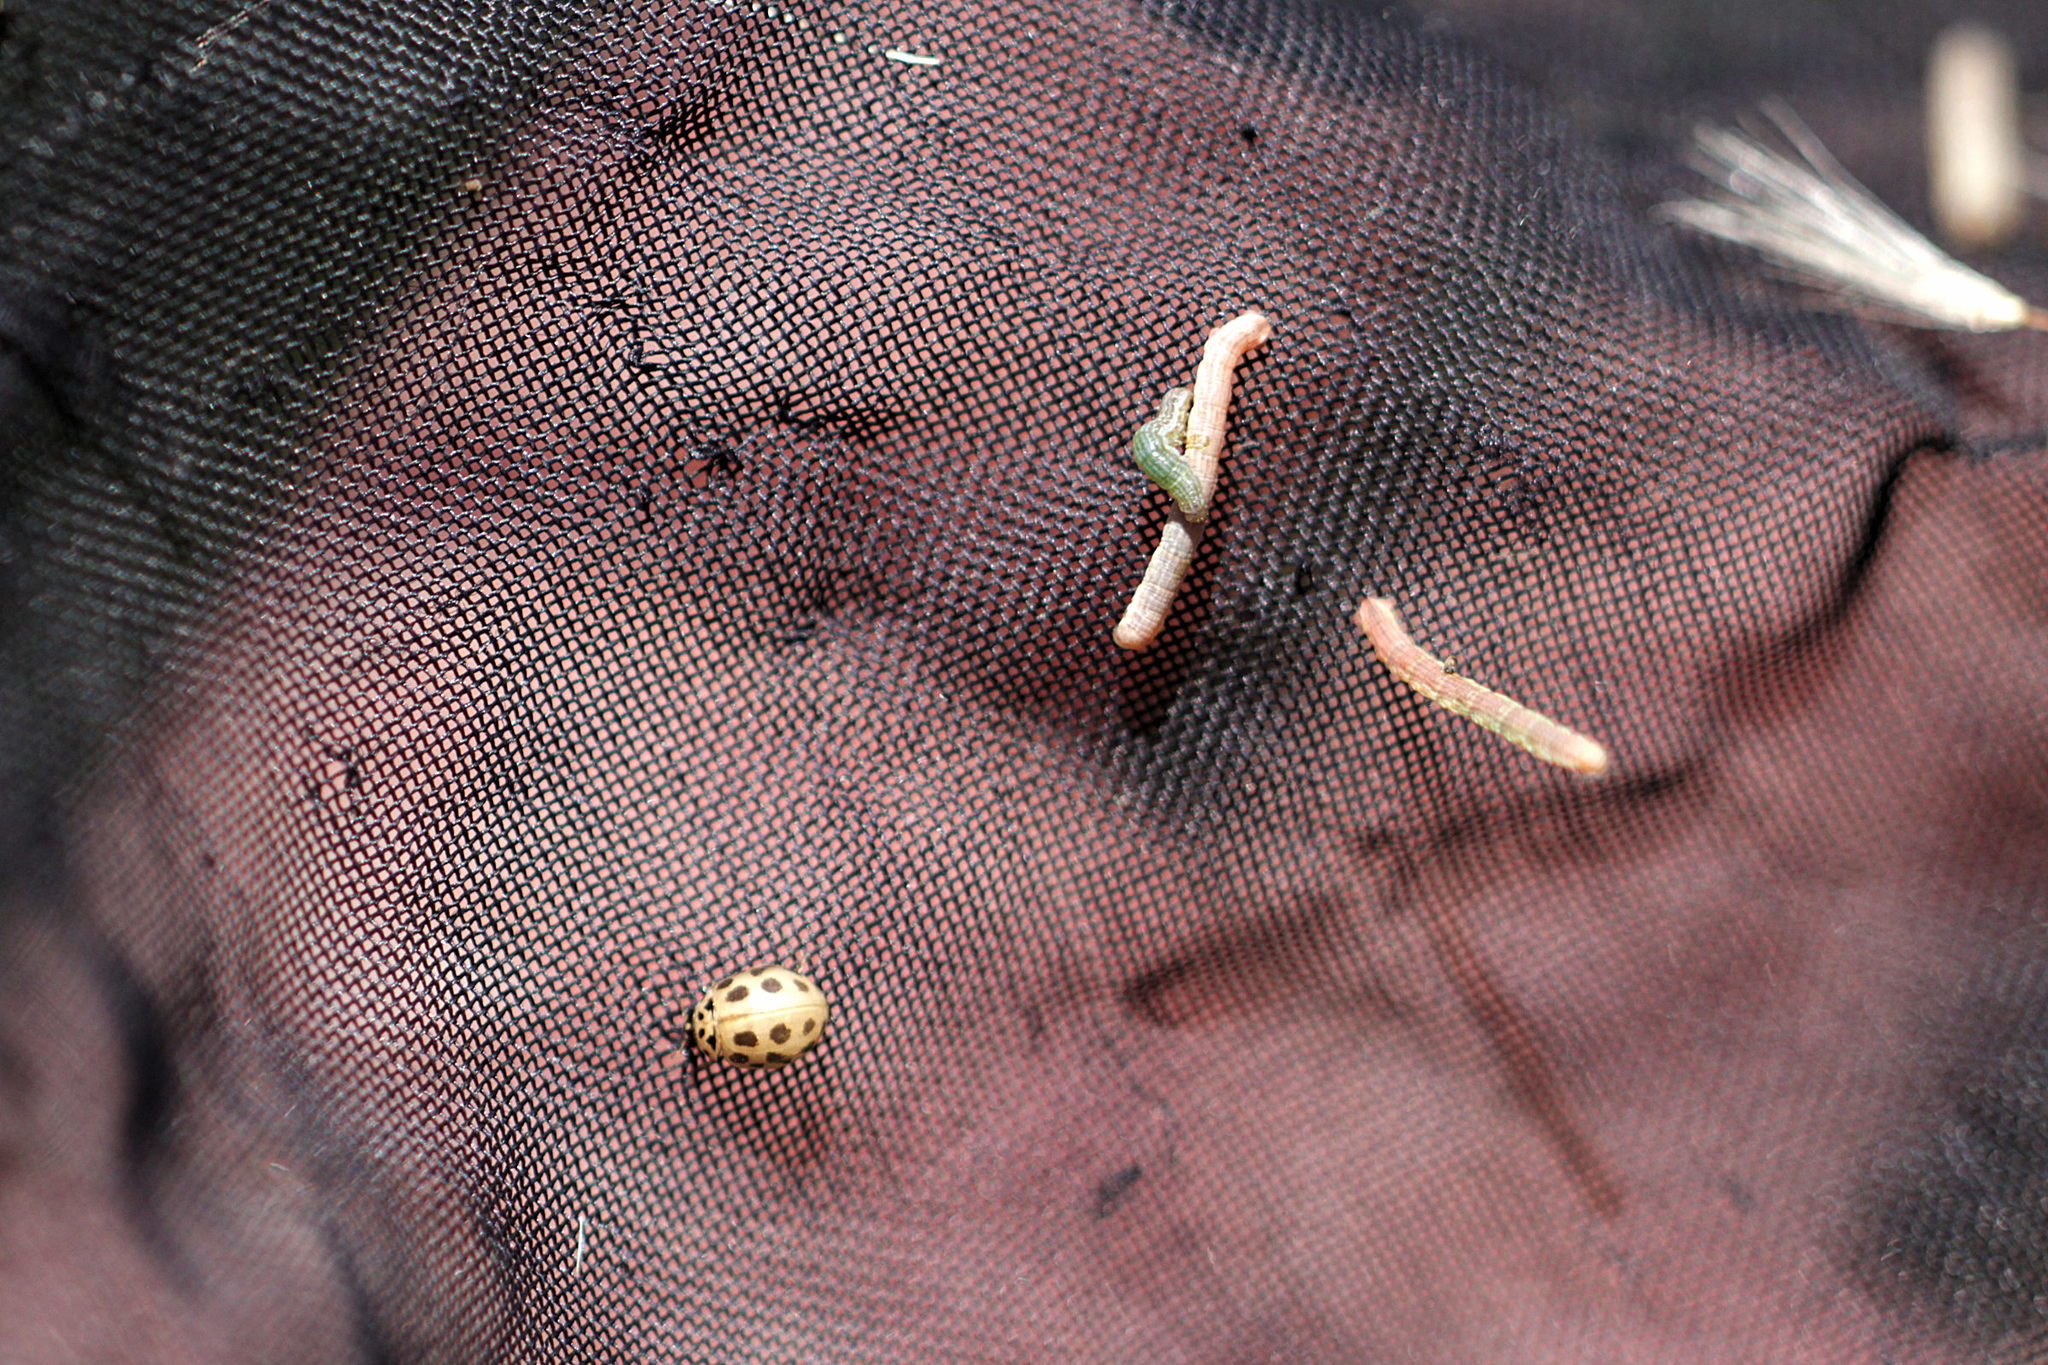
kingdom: Animalia
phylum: Arthropoda
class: Insecta
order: Coleoptera
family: Coccinellidae
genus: Tytthaspis
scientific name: Tytthaspis sedecimpunctata
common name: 16-spot ladybird
